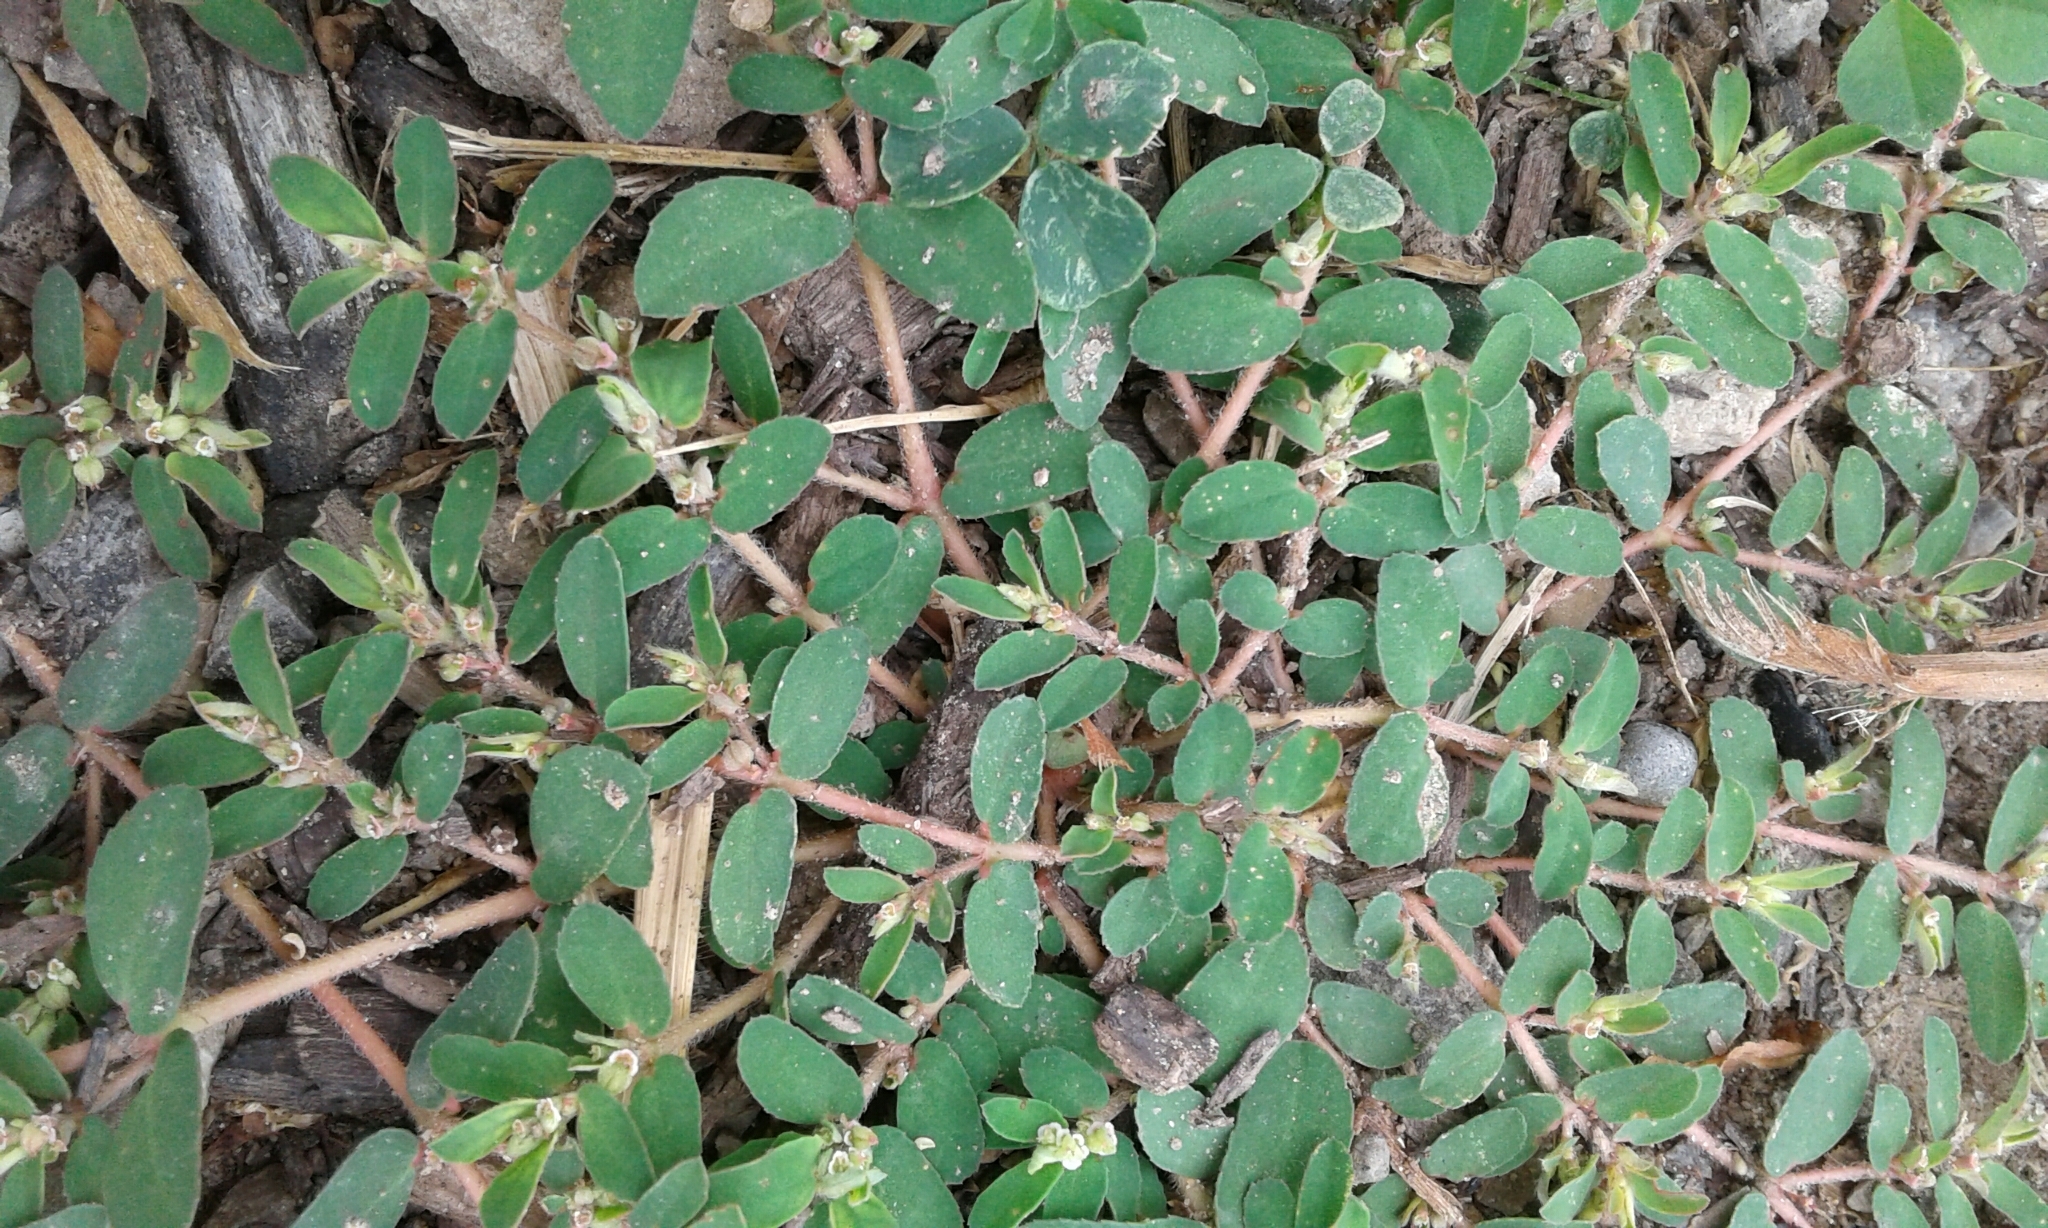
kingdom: Plantae
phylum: Tracheophyta
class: Magnoliopsida
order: Malpighiales
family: Euphorbiaceae
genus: Euphorbia
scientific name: Euphorbia maculata
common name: Spotted spurge
